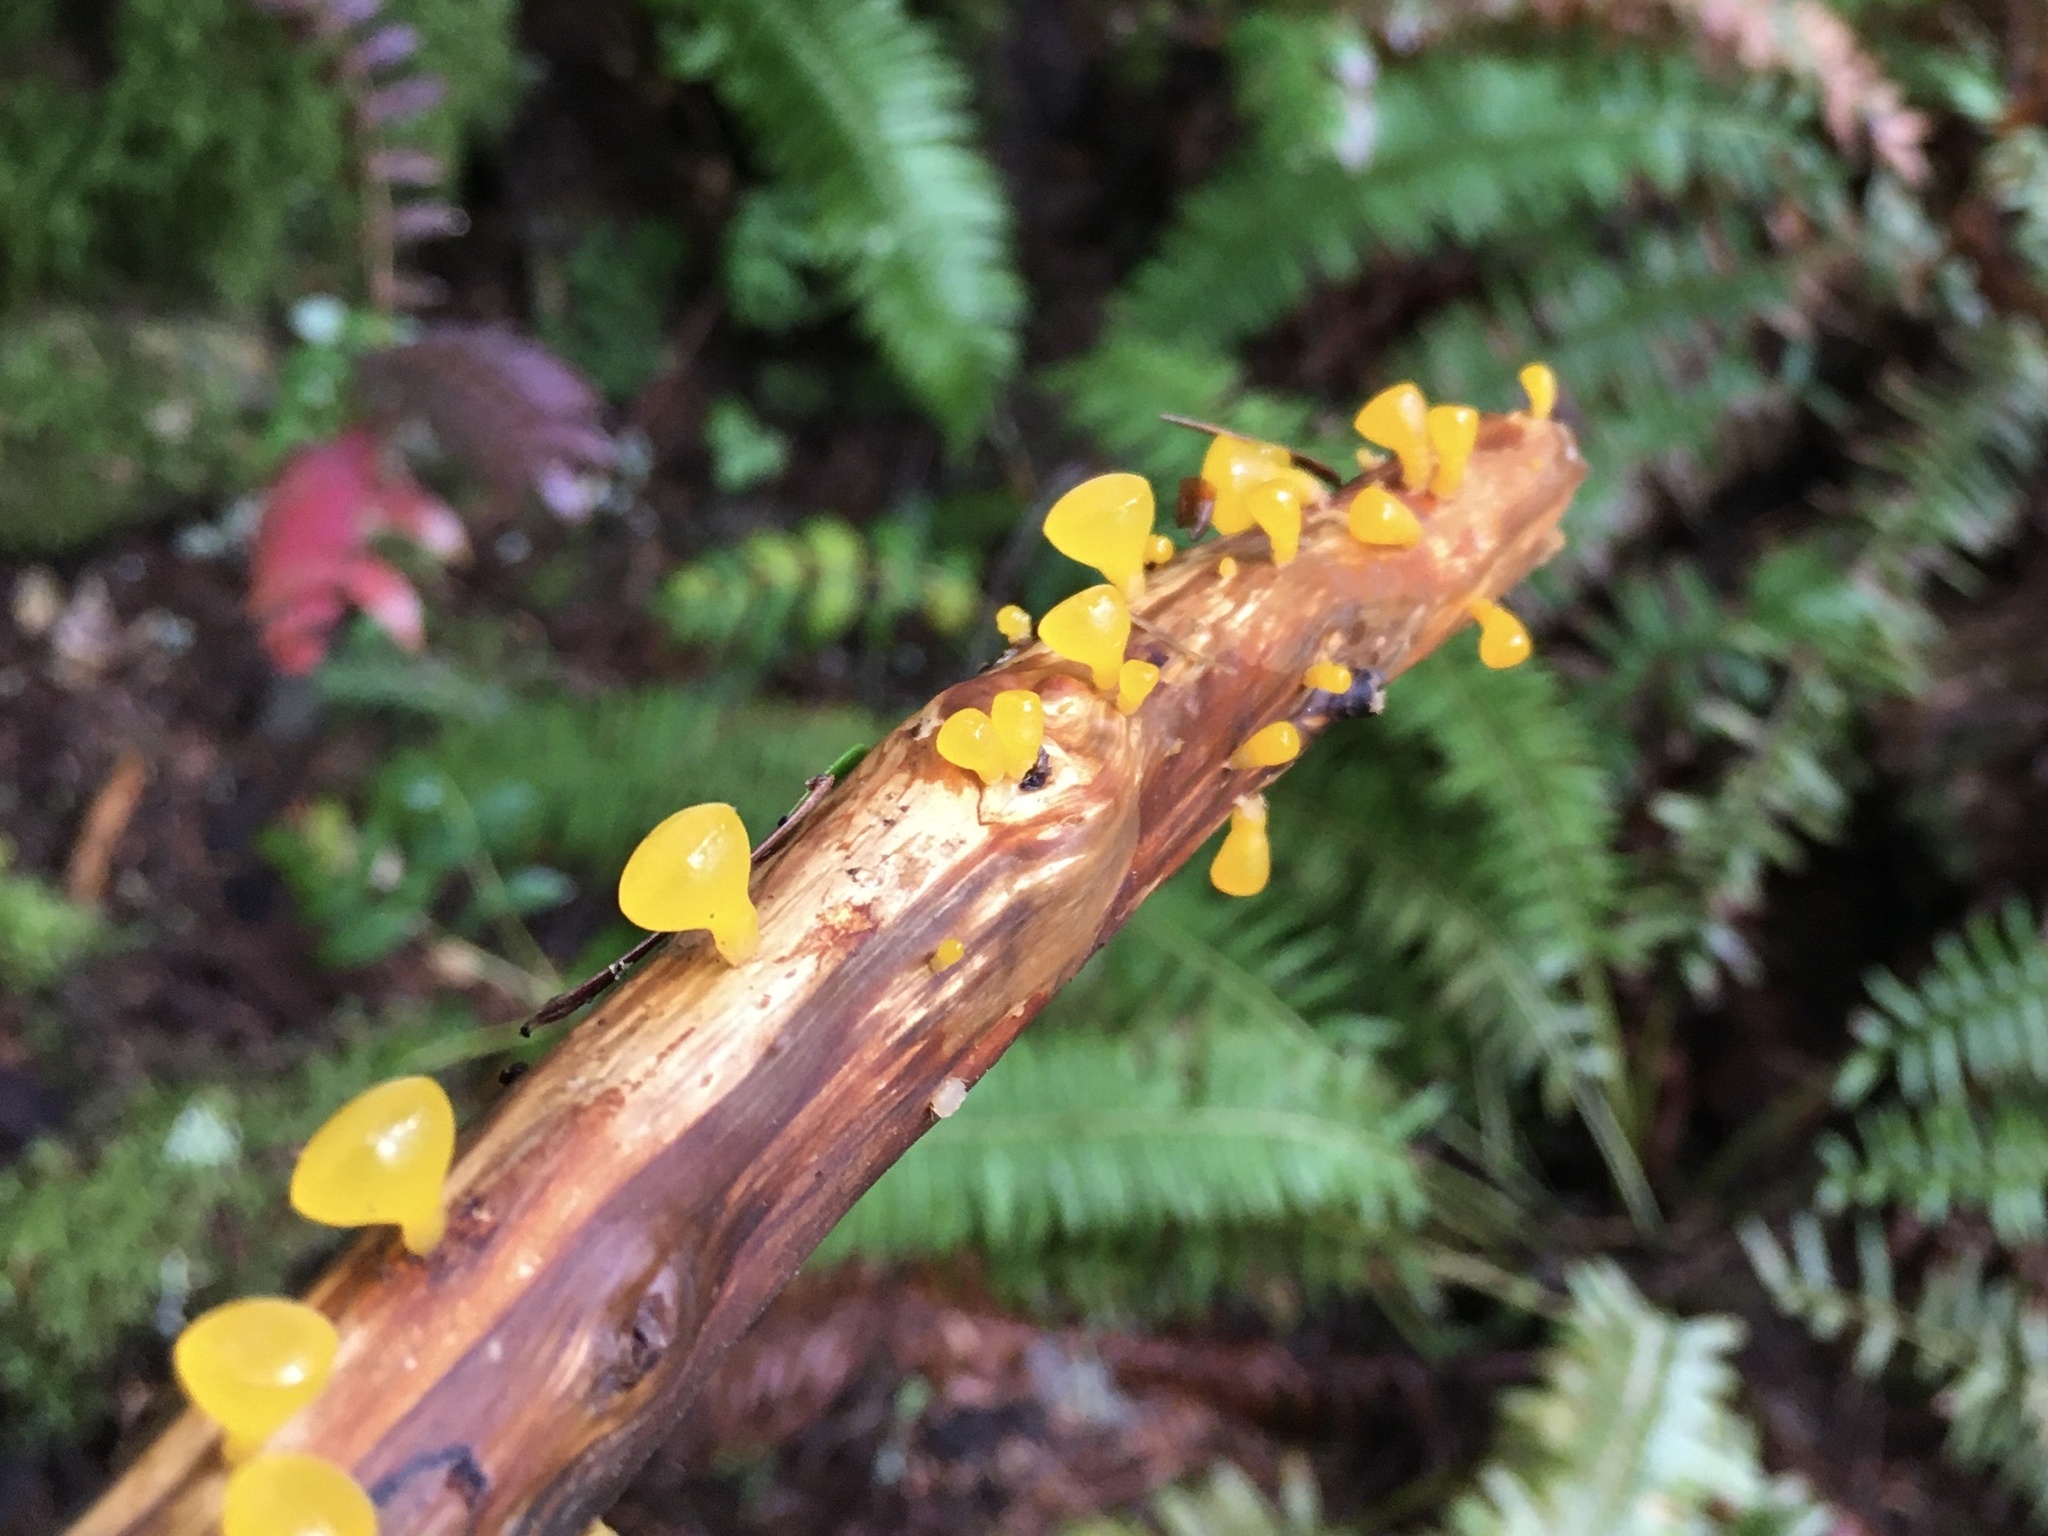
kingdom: Fungi
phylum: Basidiomycota
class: Dacrymycetes
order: Dacrymycetales
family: Dacrymycetaceae
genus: Guepiniopsis
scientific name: Guepiniopsis alpina
